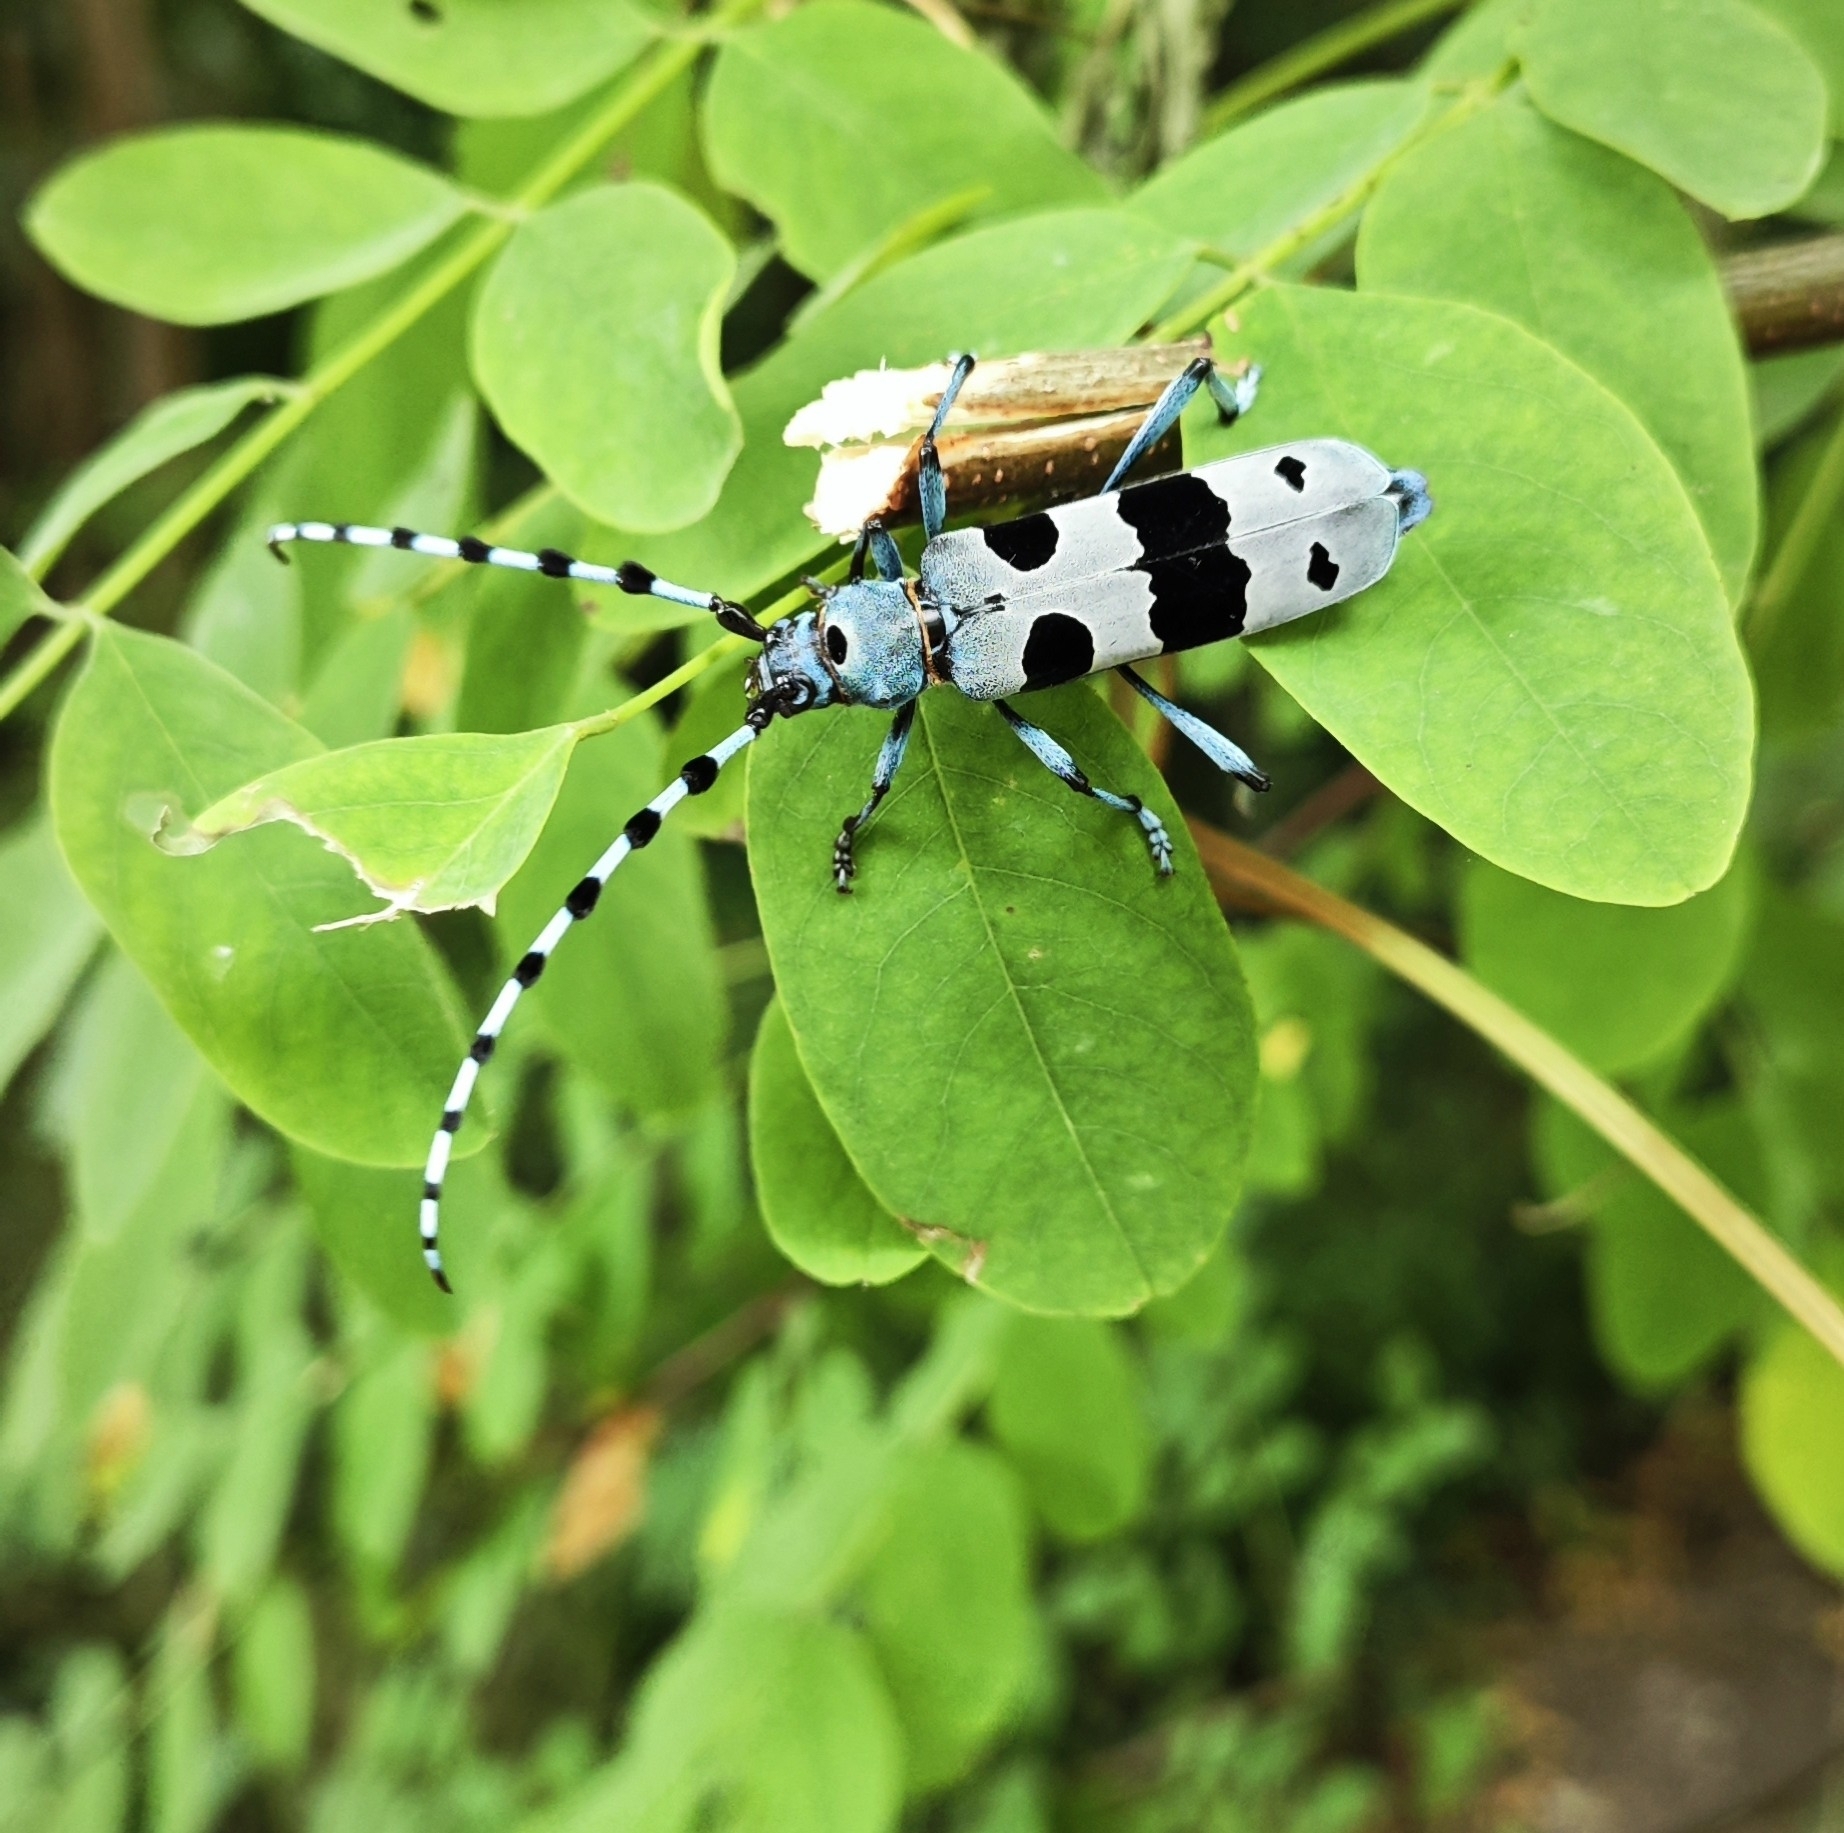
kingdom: Animalia
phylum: Arthropoda
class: Insecta
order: Coleoptera
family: Cerambycidae
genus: Rosalia
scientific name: Rosalia alpina
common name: Rosalia longicorn
